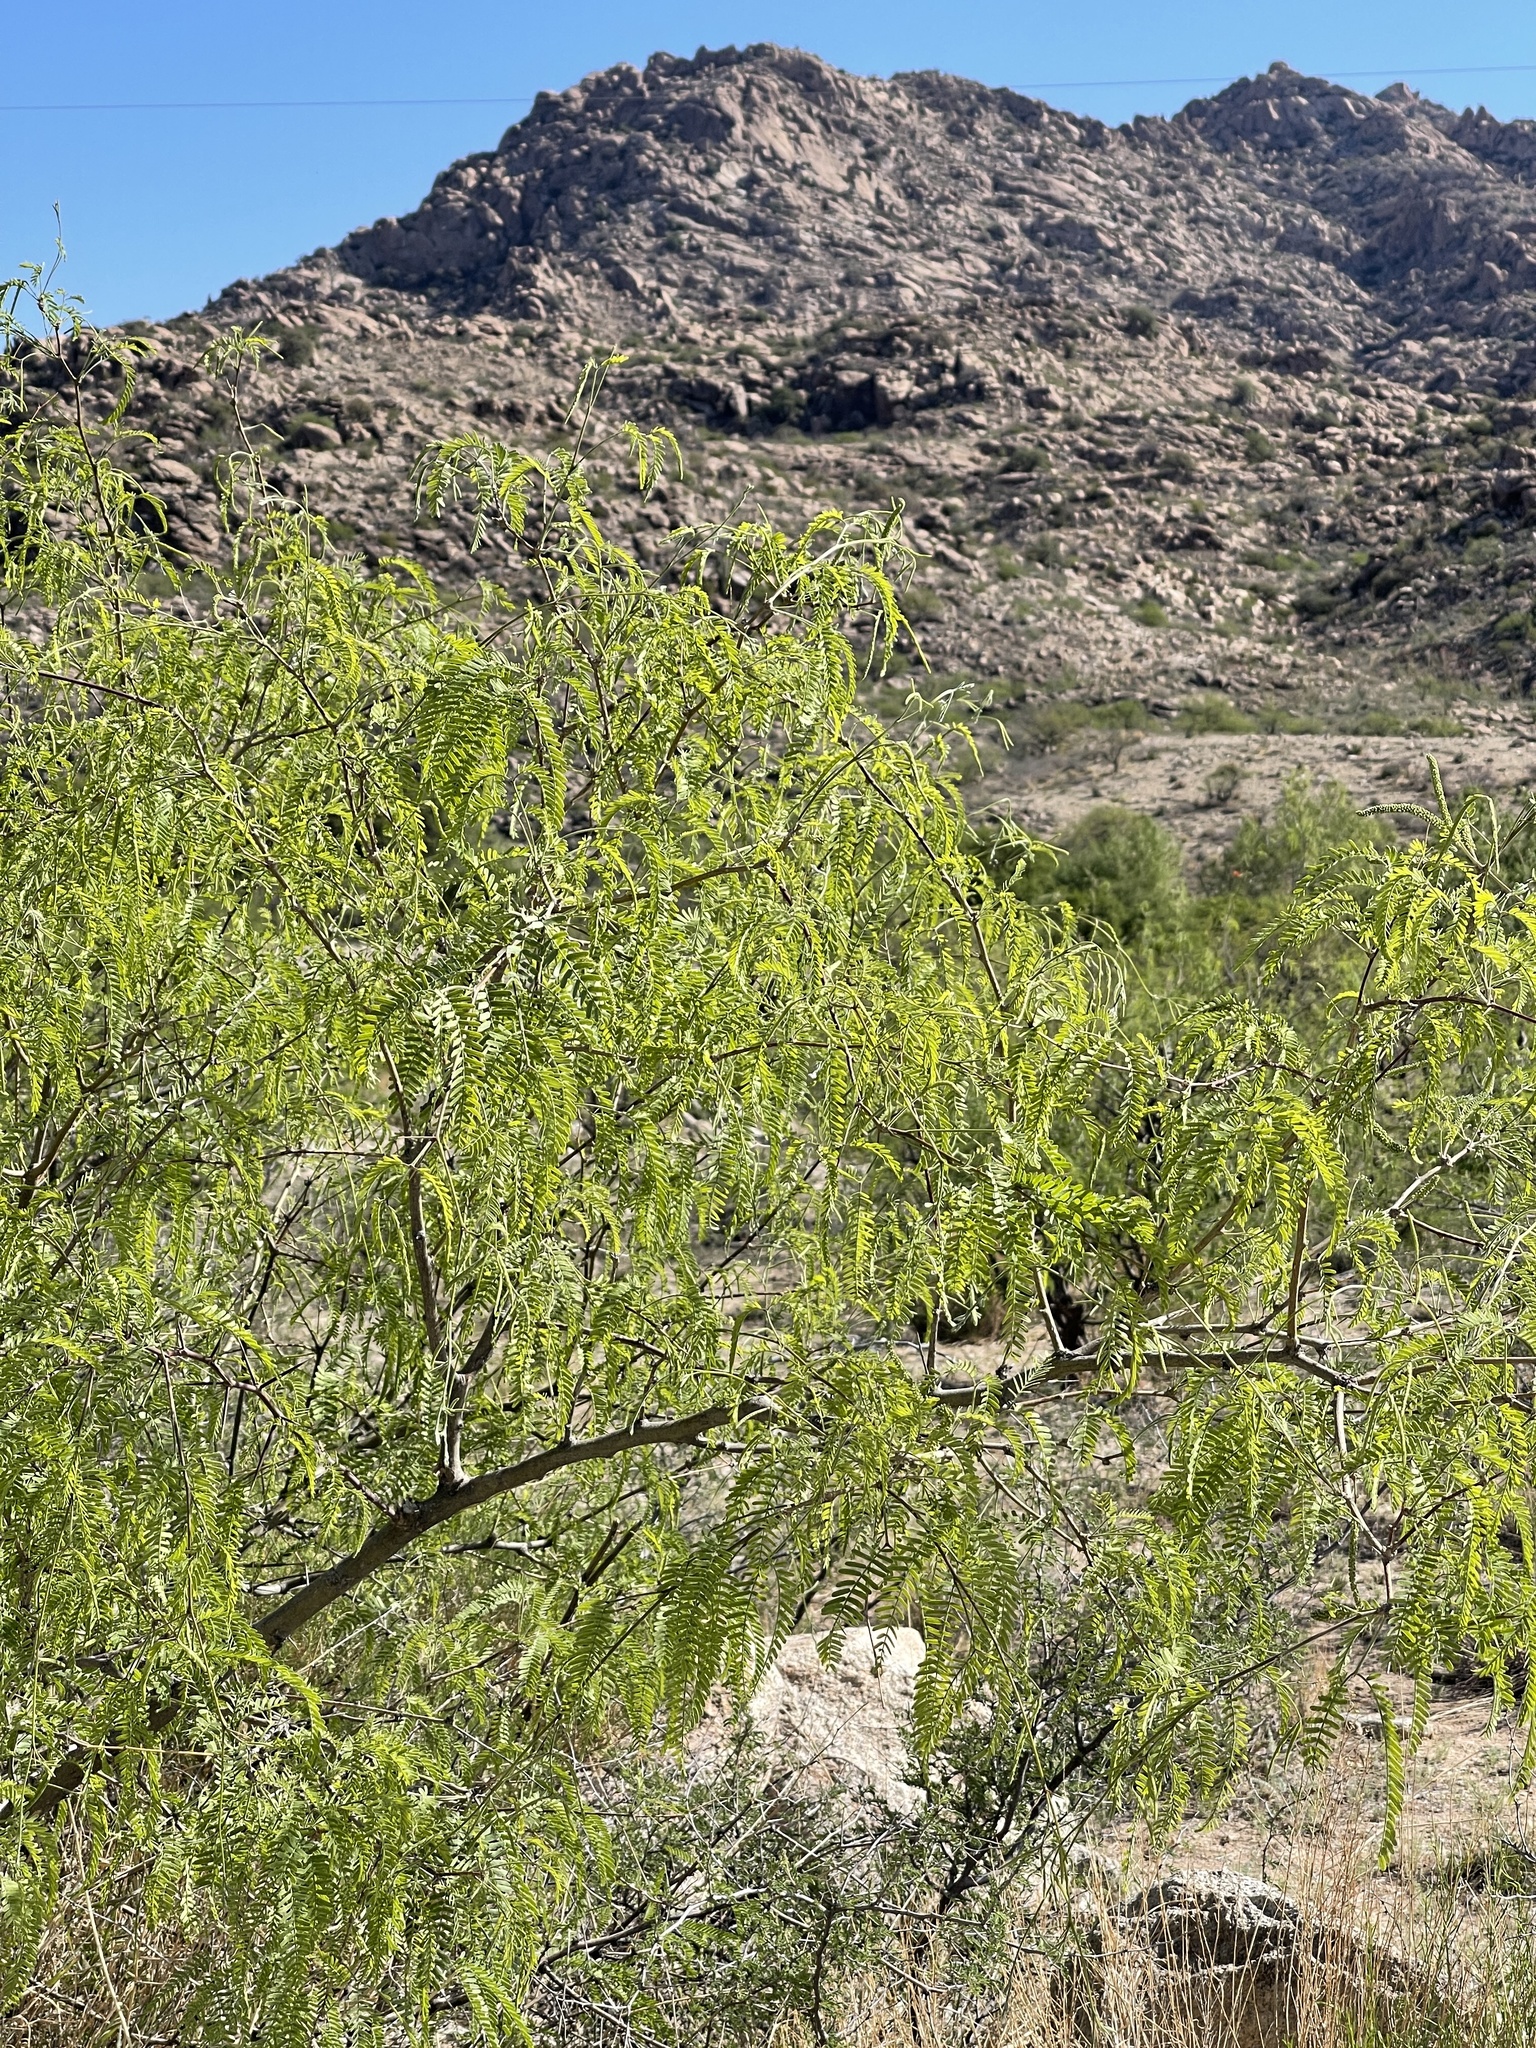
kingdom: Plantae
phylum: Tracheophyta
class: Magnoliopsida
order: Fabales
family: Fabaceae
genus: Prosopis
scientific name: Prosopis velutina
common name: Velvet mesquite
